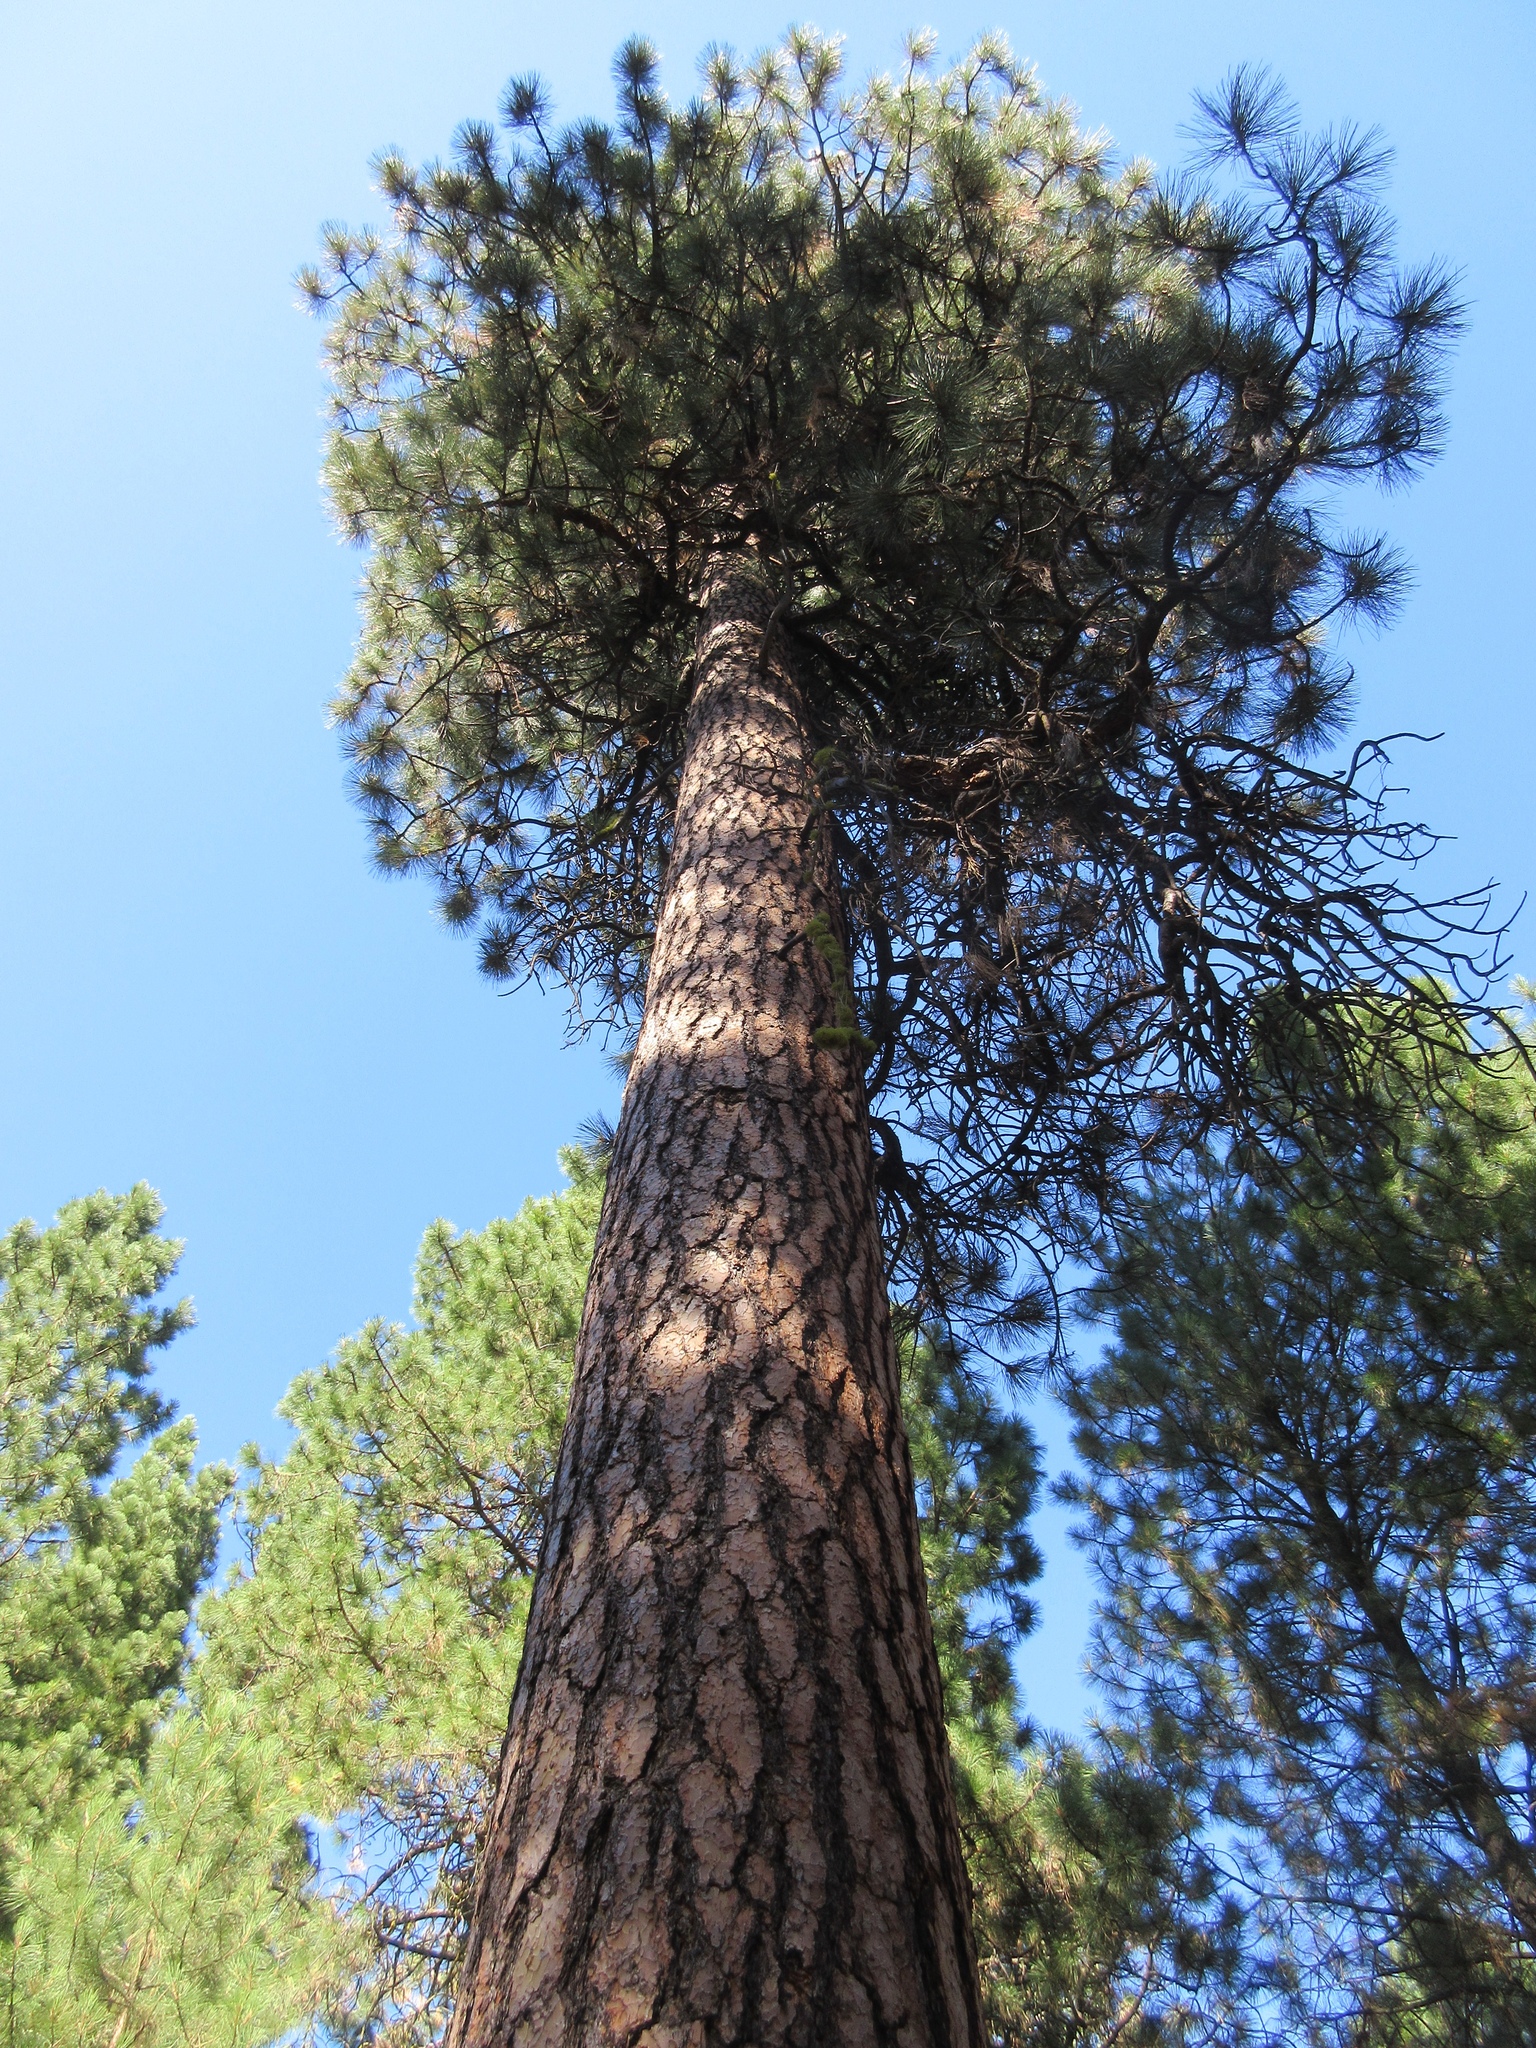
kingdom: Plantae
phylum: Tracheophyta
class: Pinopsida
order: Pinales
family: Pinaceae
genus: Pinus
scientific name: Pinus ponderosa
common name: Western yellow-pine
